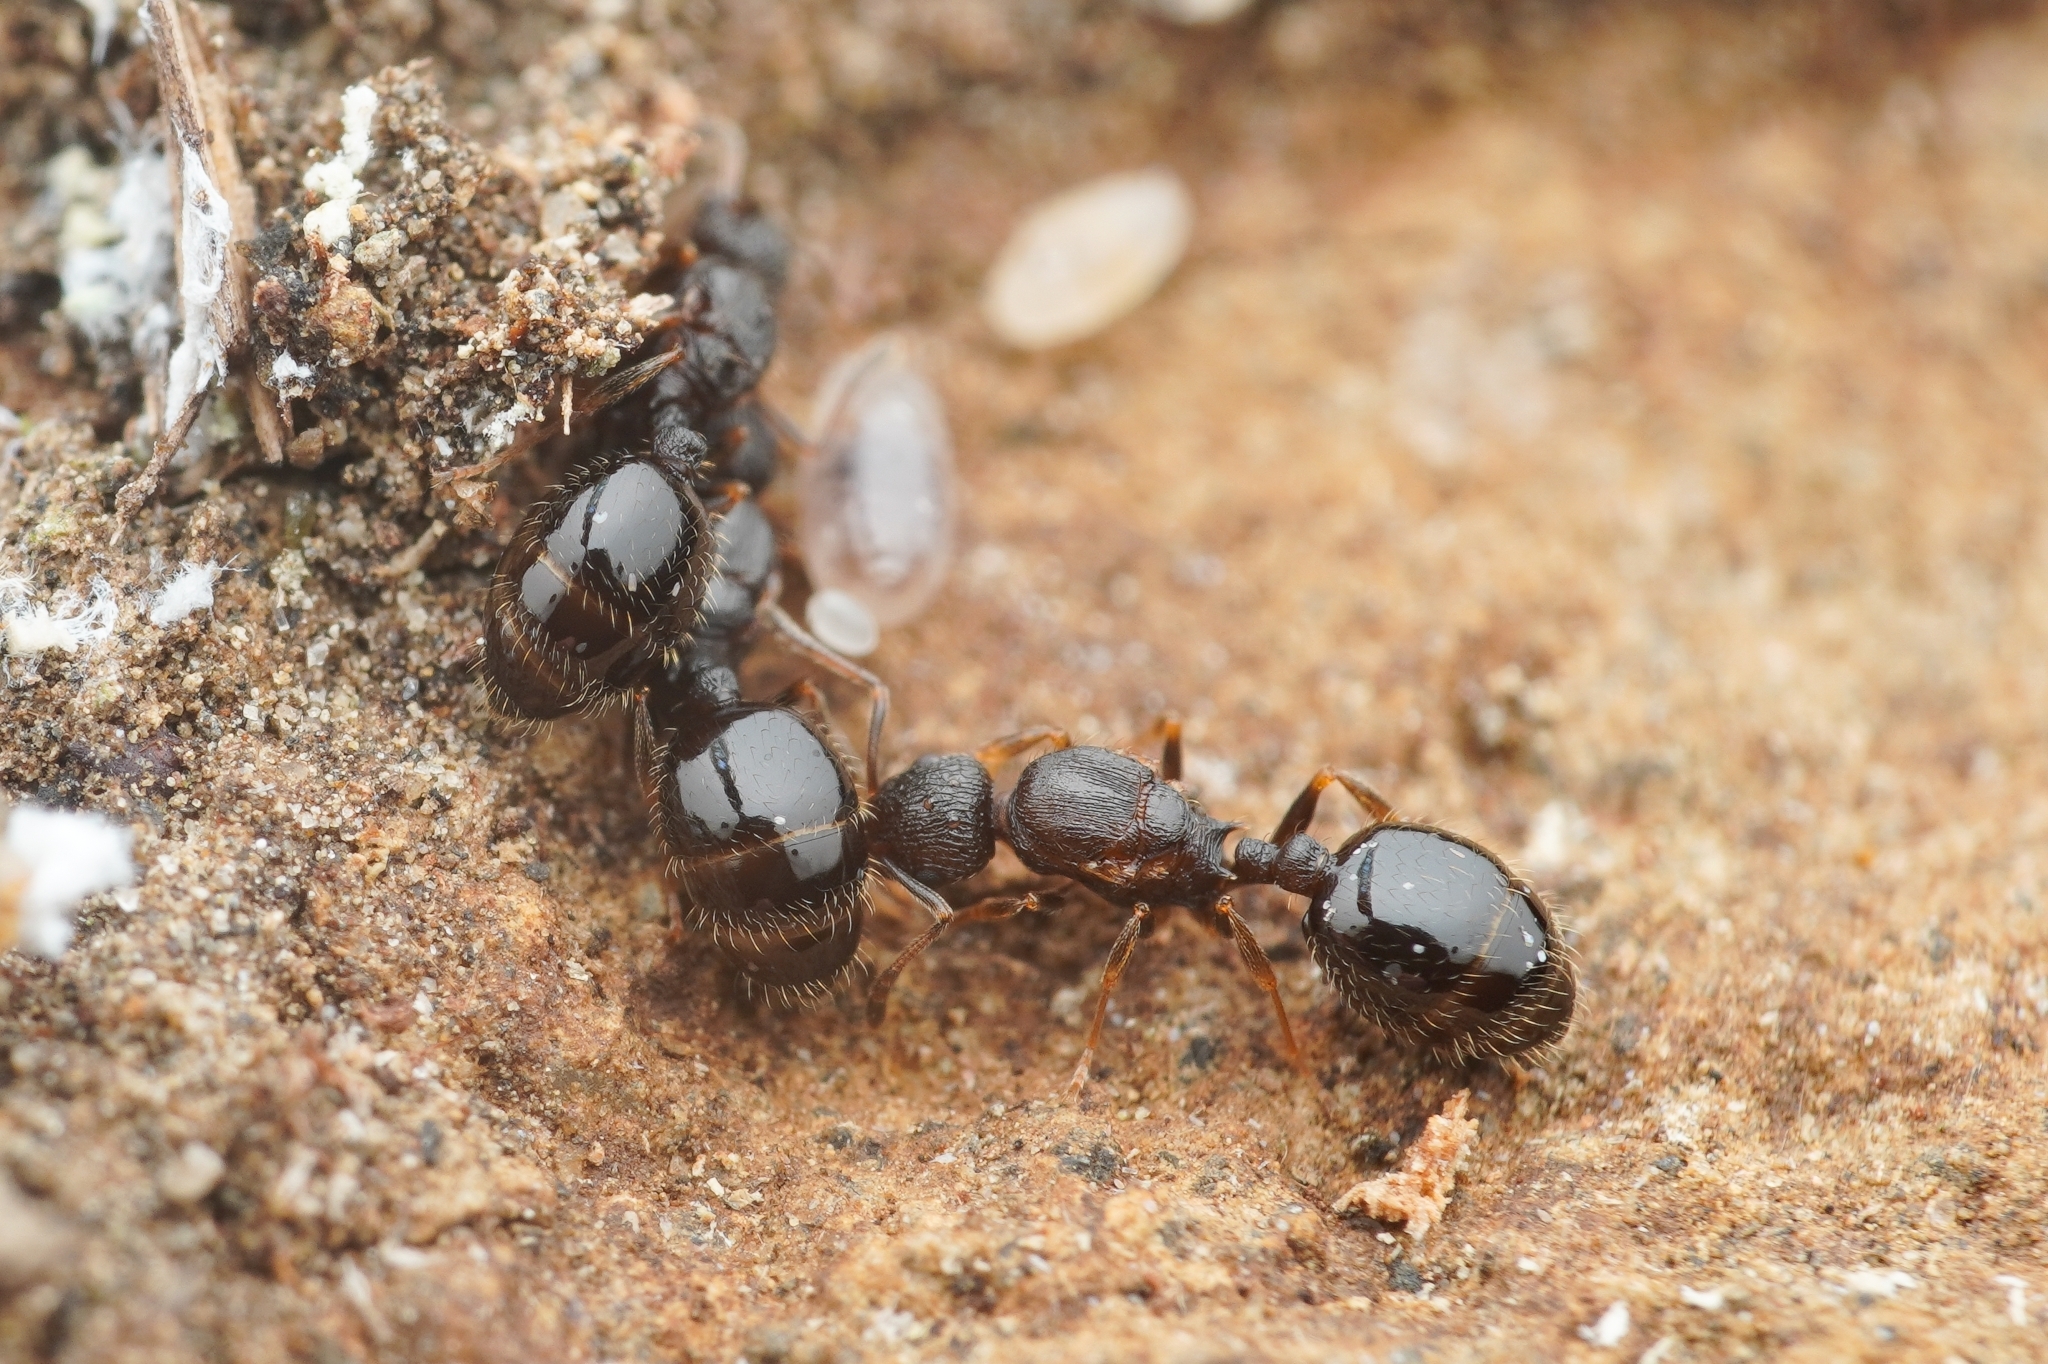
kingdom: Animalia
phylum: Arthropoda
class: Insecta
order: Hymenoptera
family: Formicidae
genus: Temnothorax
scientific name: Temnothorax
